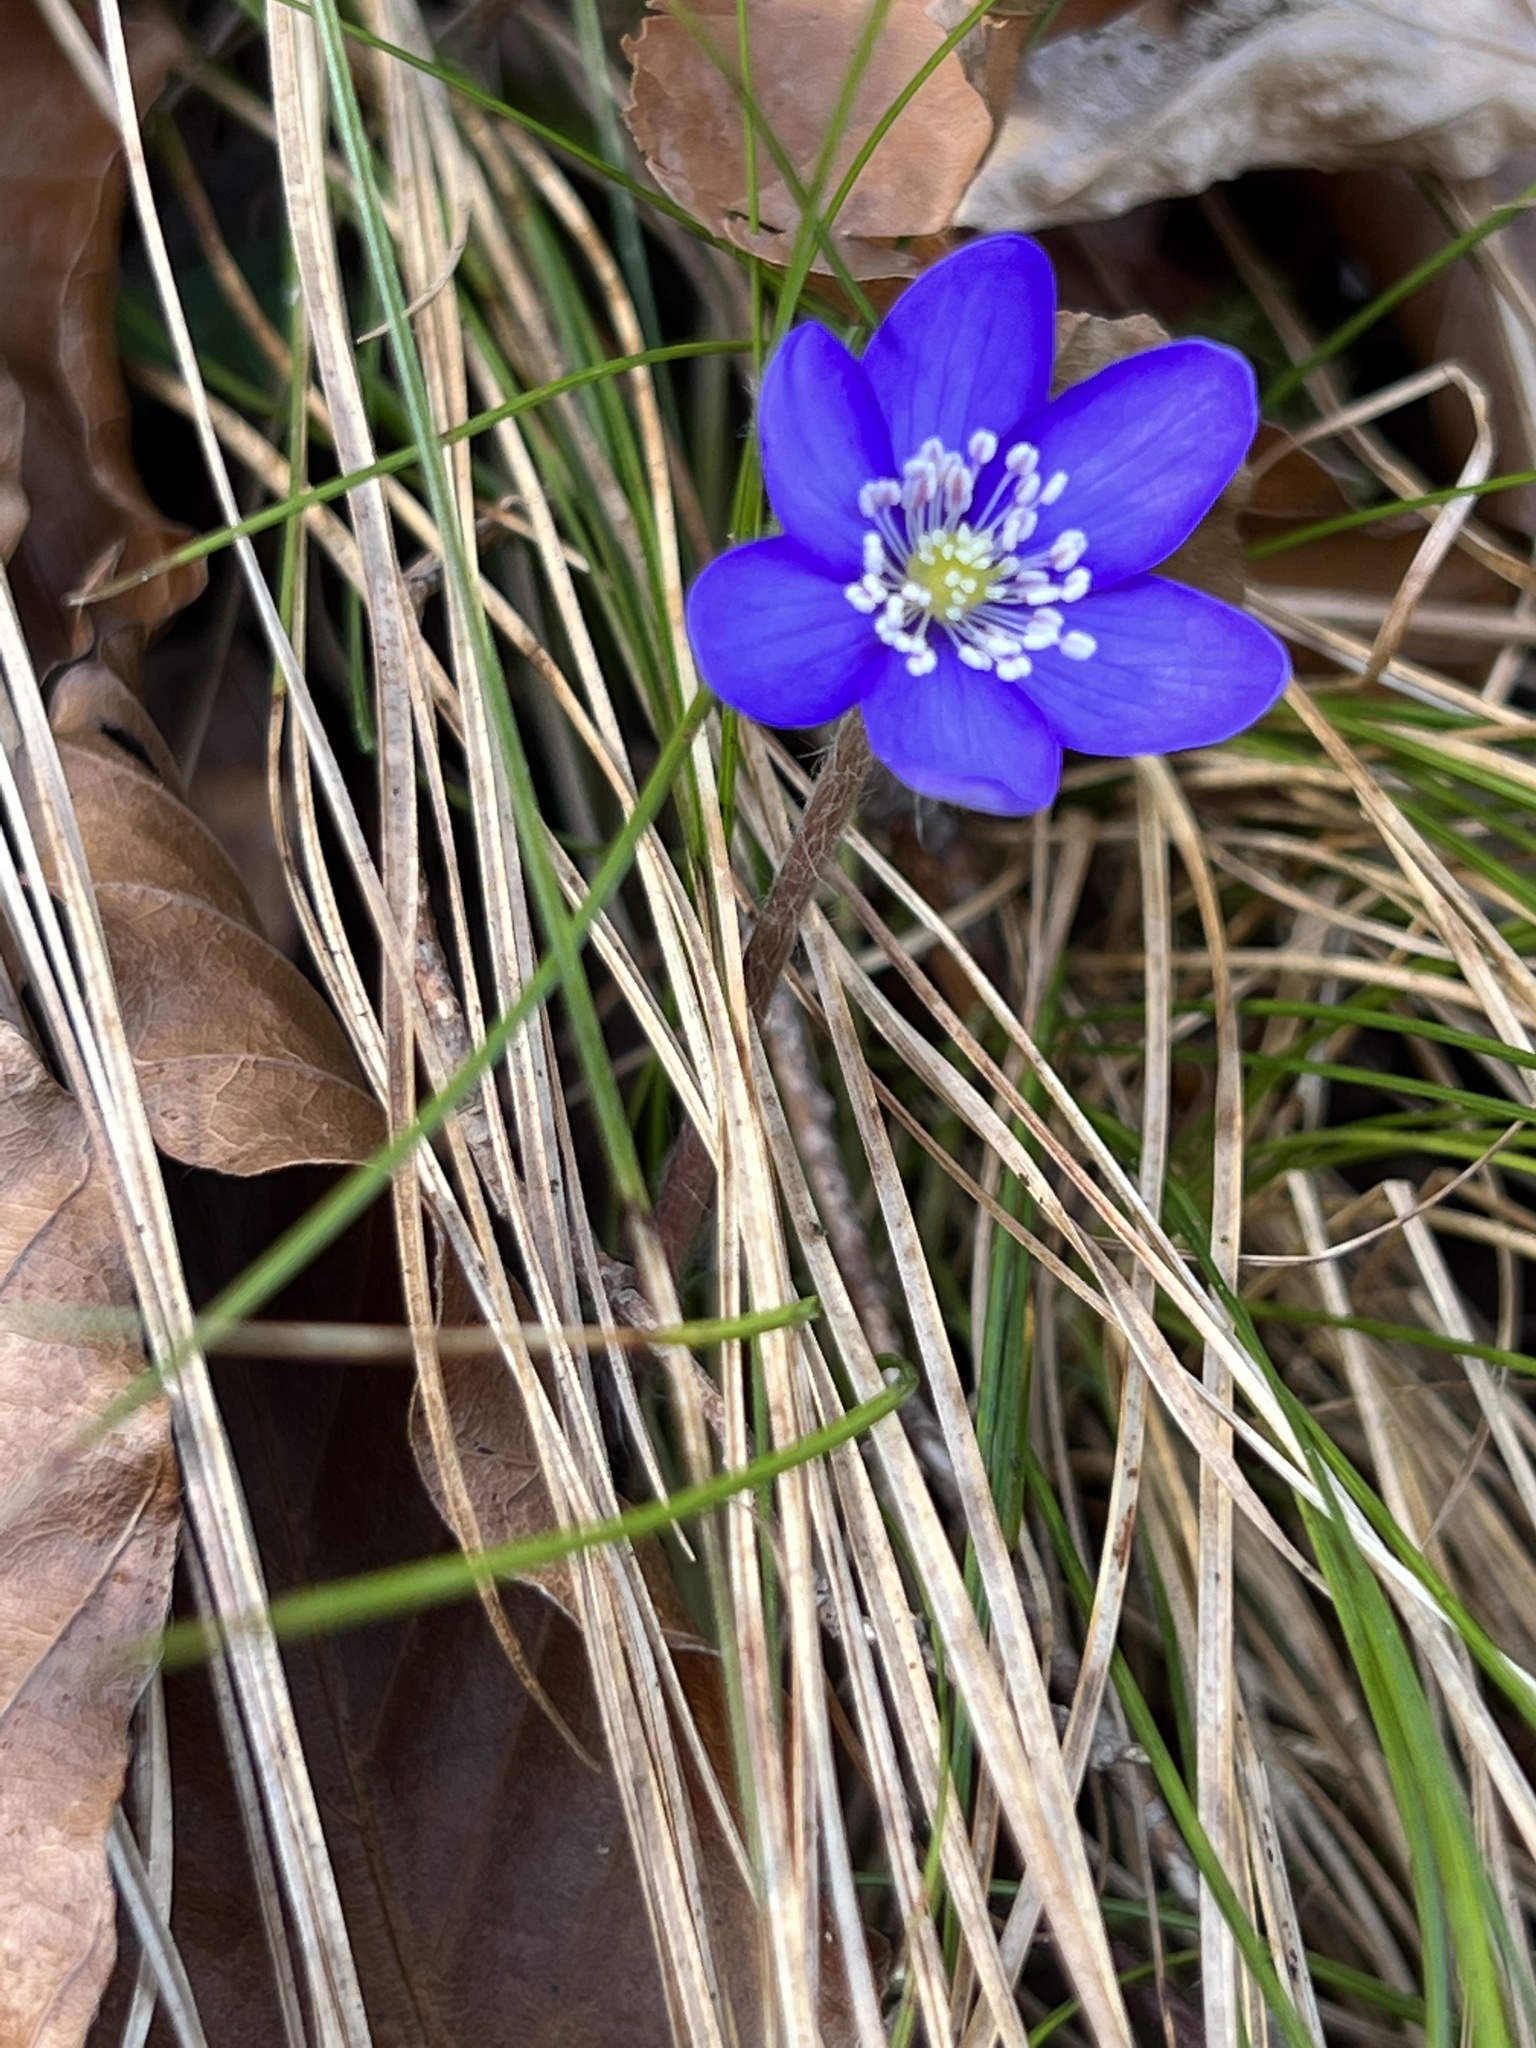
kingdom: Plantae
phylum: Tracheophyta
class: Magnoliopsida
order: Ranunculales
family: Ranunculaceae
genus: Hepatica
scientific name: Hepatica nobilis
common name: Liverleaf
